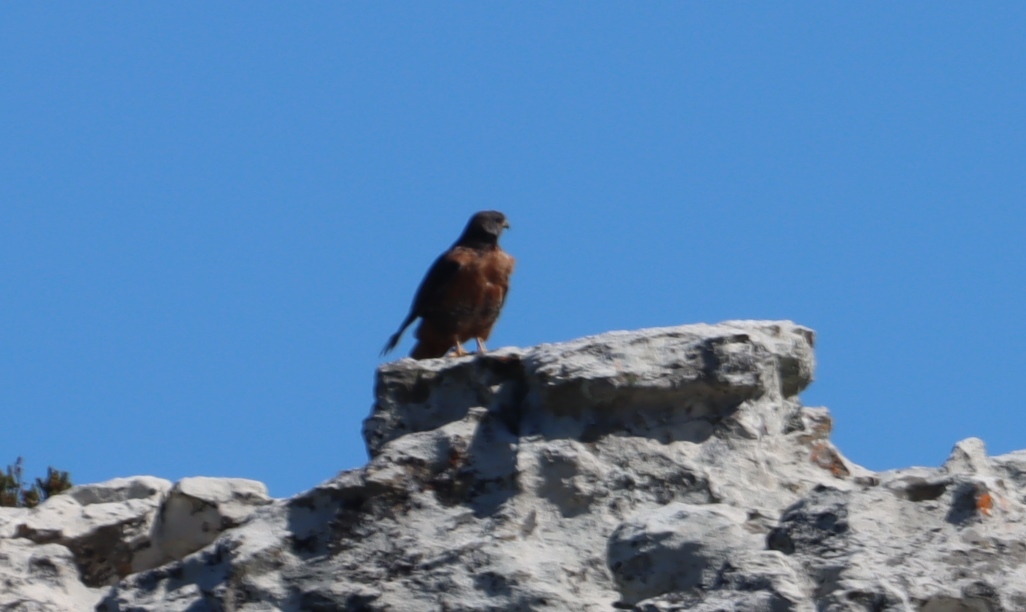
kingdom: Animalia
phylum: Chordata
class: Aves
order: Falconiformes
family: Falconidae
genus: Falco
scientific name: Falco rupicolus
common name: Rock kestrel
